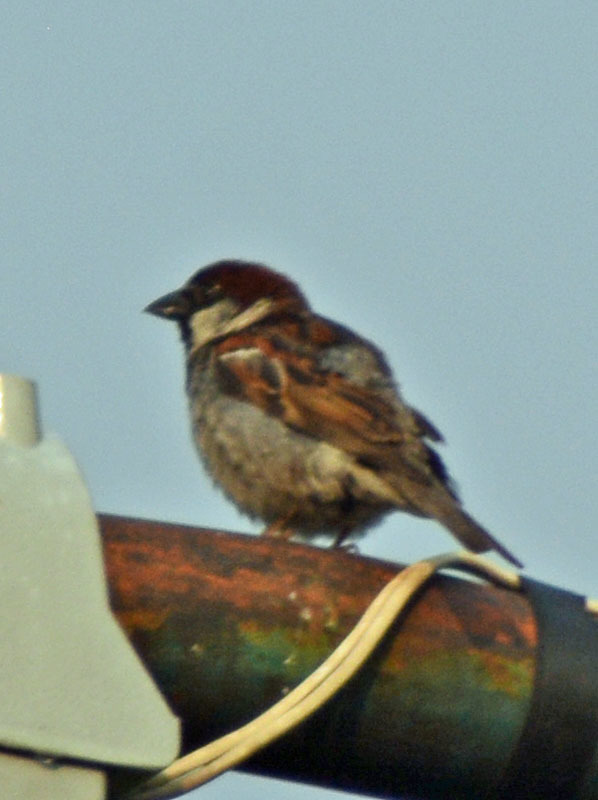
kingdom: Animalia
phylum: Chordata
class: Aves
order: Passeriformes
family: Passeridae
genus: Passer
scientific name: Passer domesticus
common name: House sparrow
